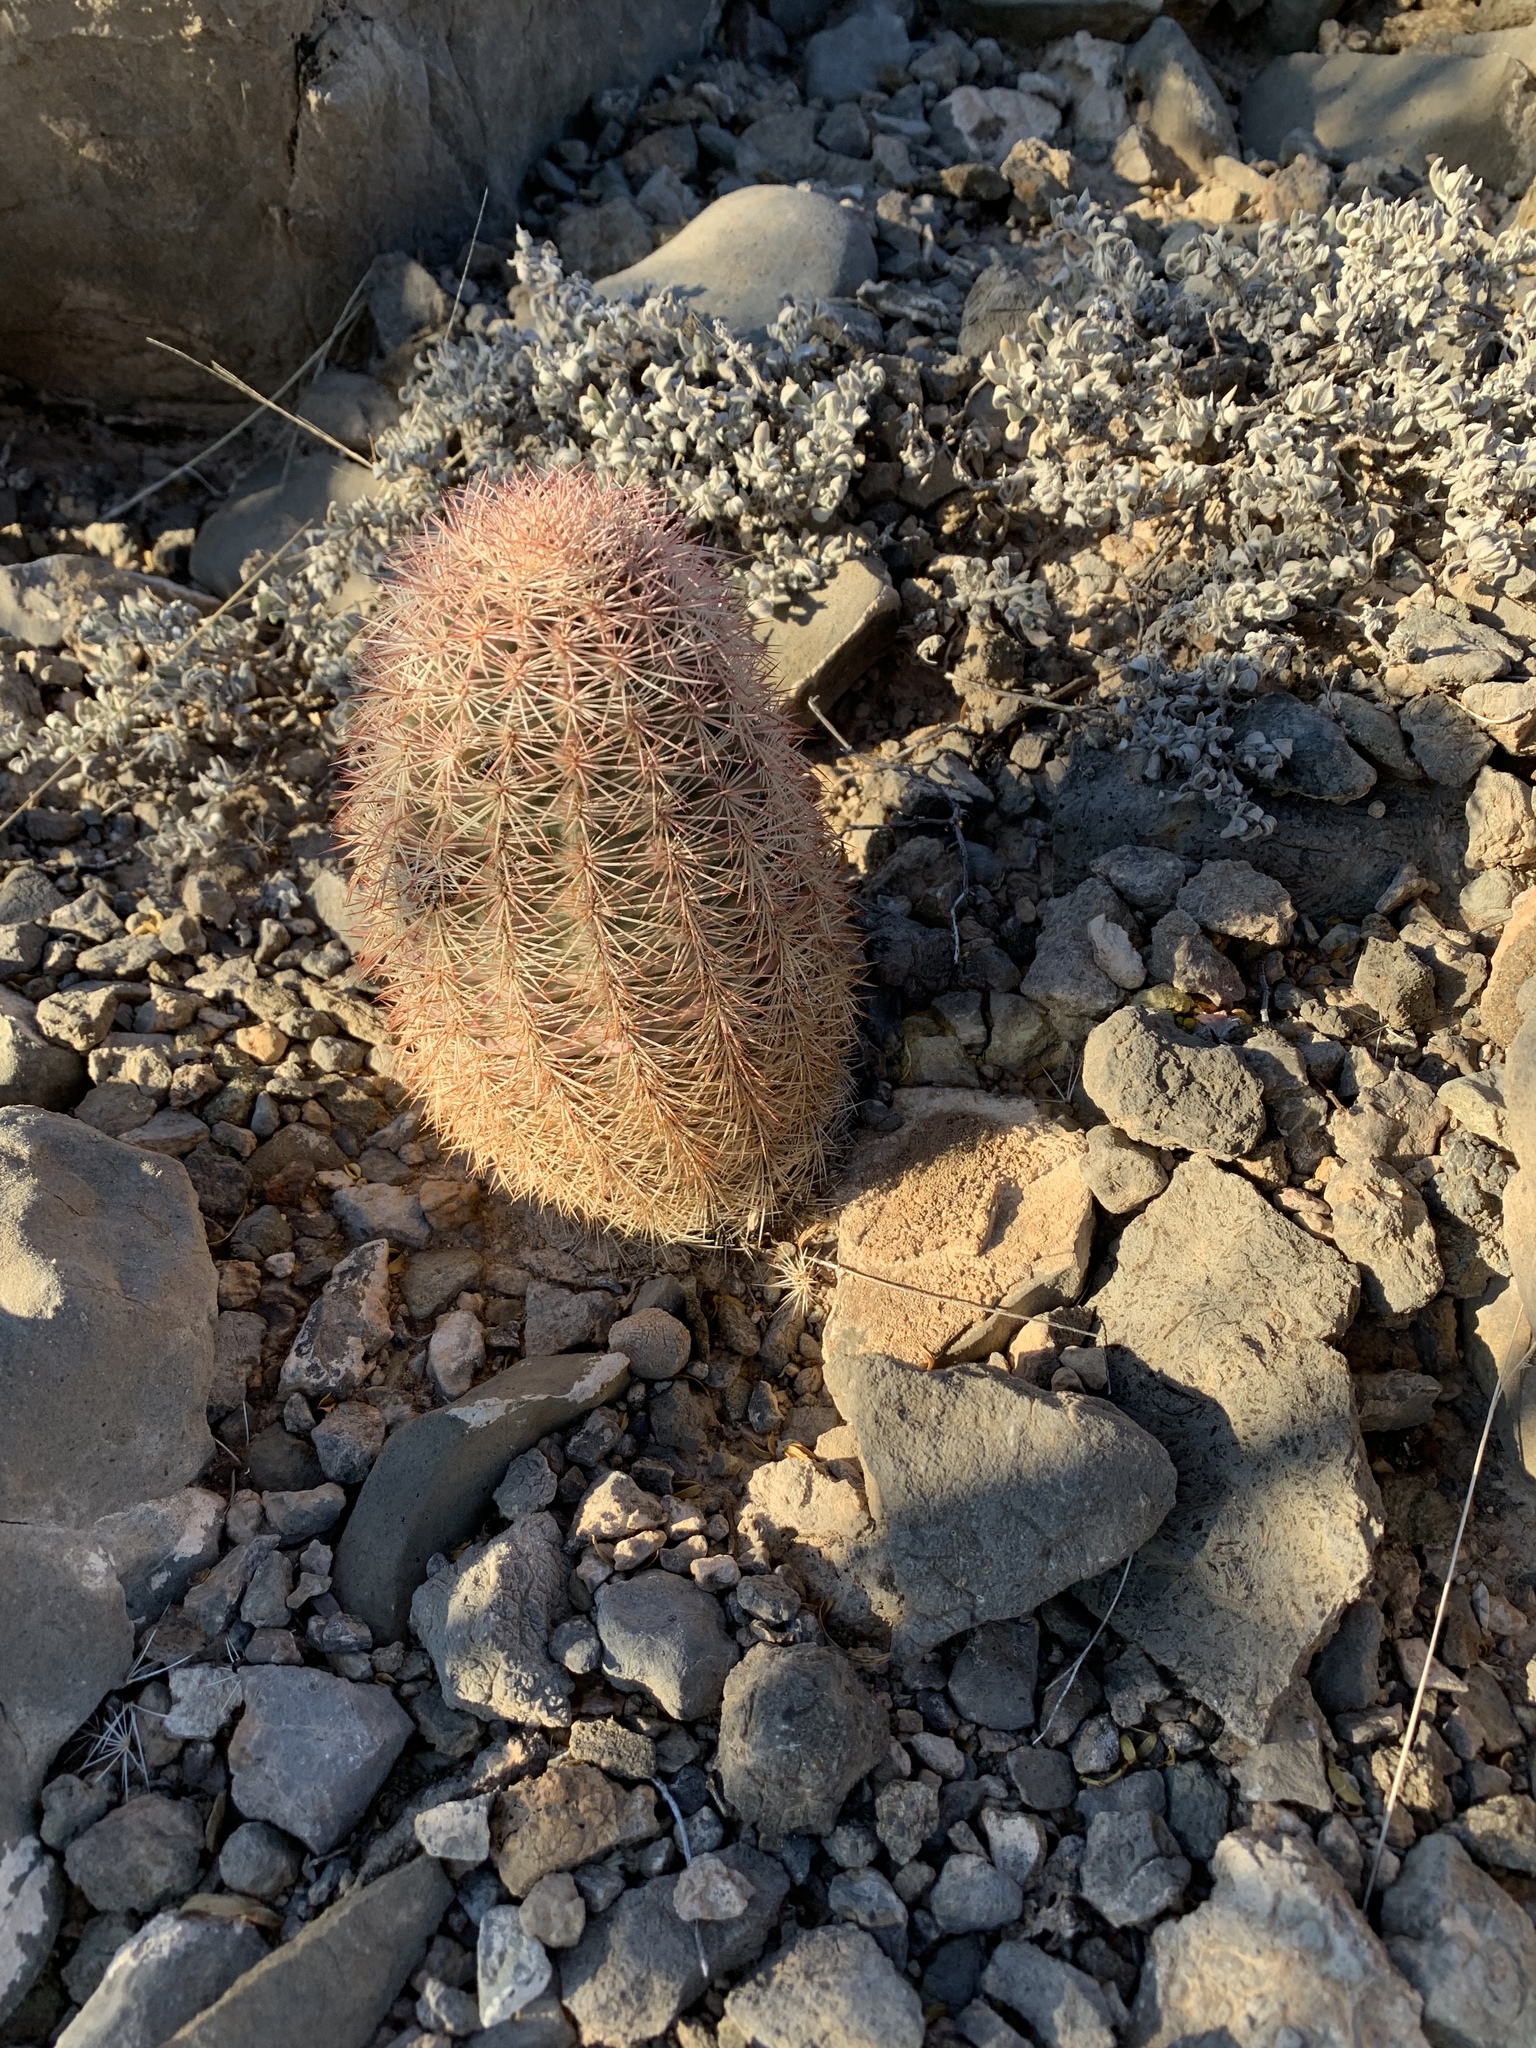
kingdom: Plantae
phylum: Tracheophyta
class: Magnoliopsida
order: Caryophyllales
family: Cactaceae
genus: Echinocereus
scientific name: Echinocereus dasyacanthus
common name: Spiny hedgehog cactus
